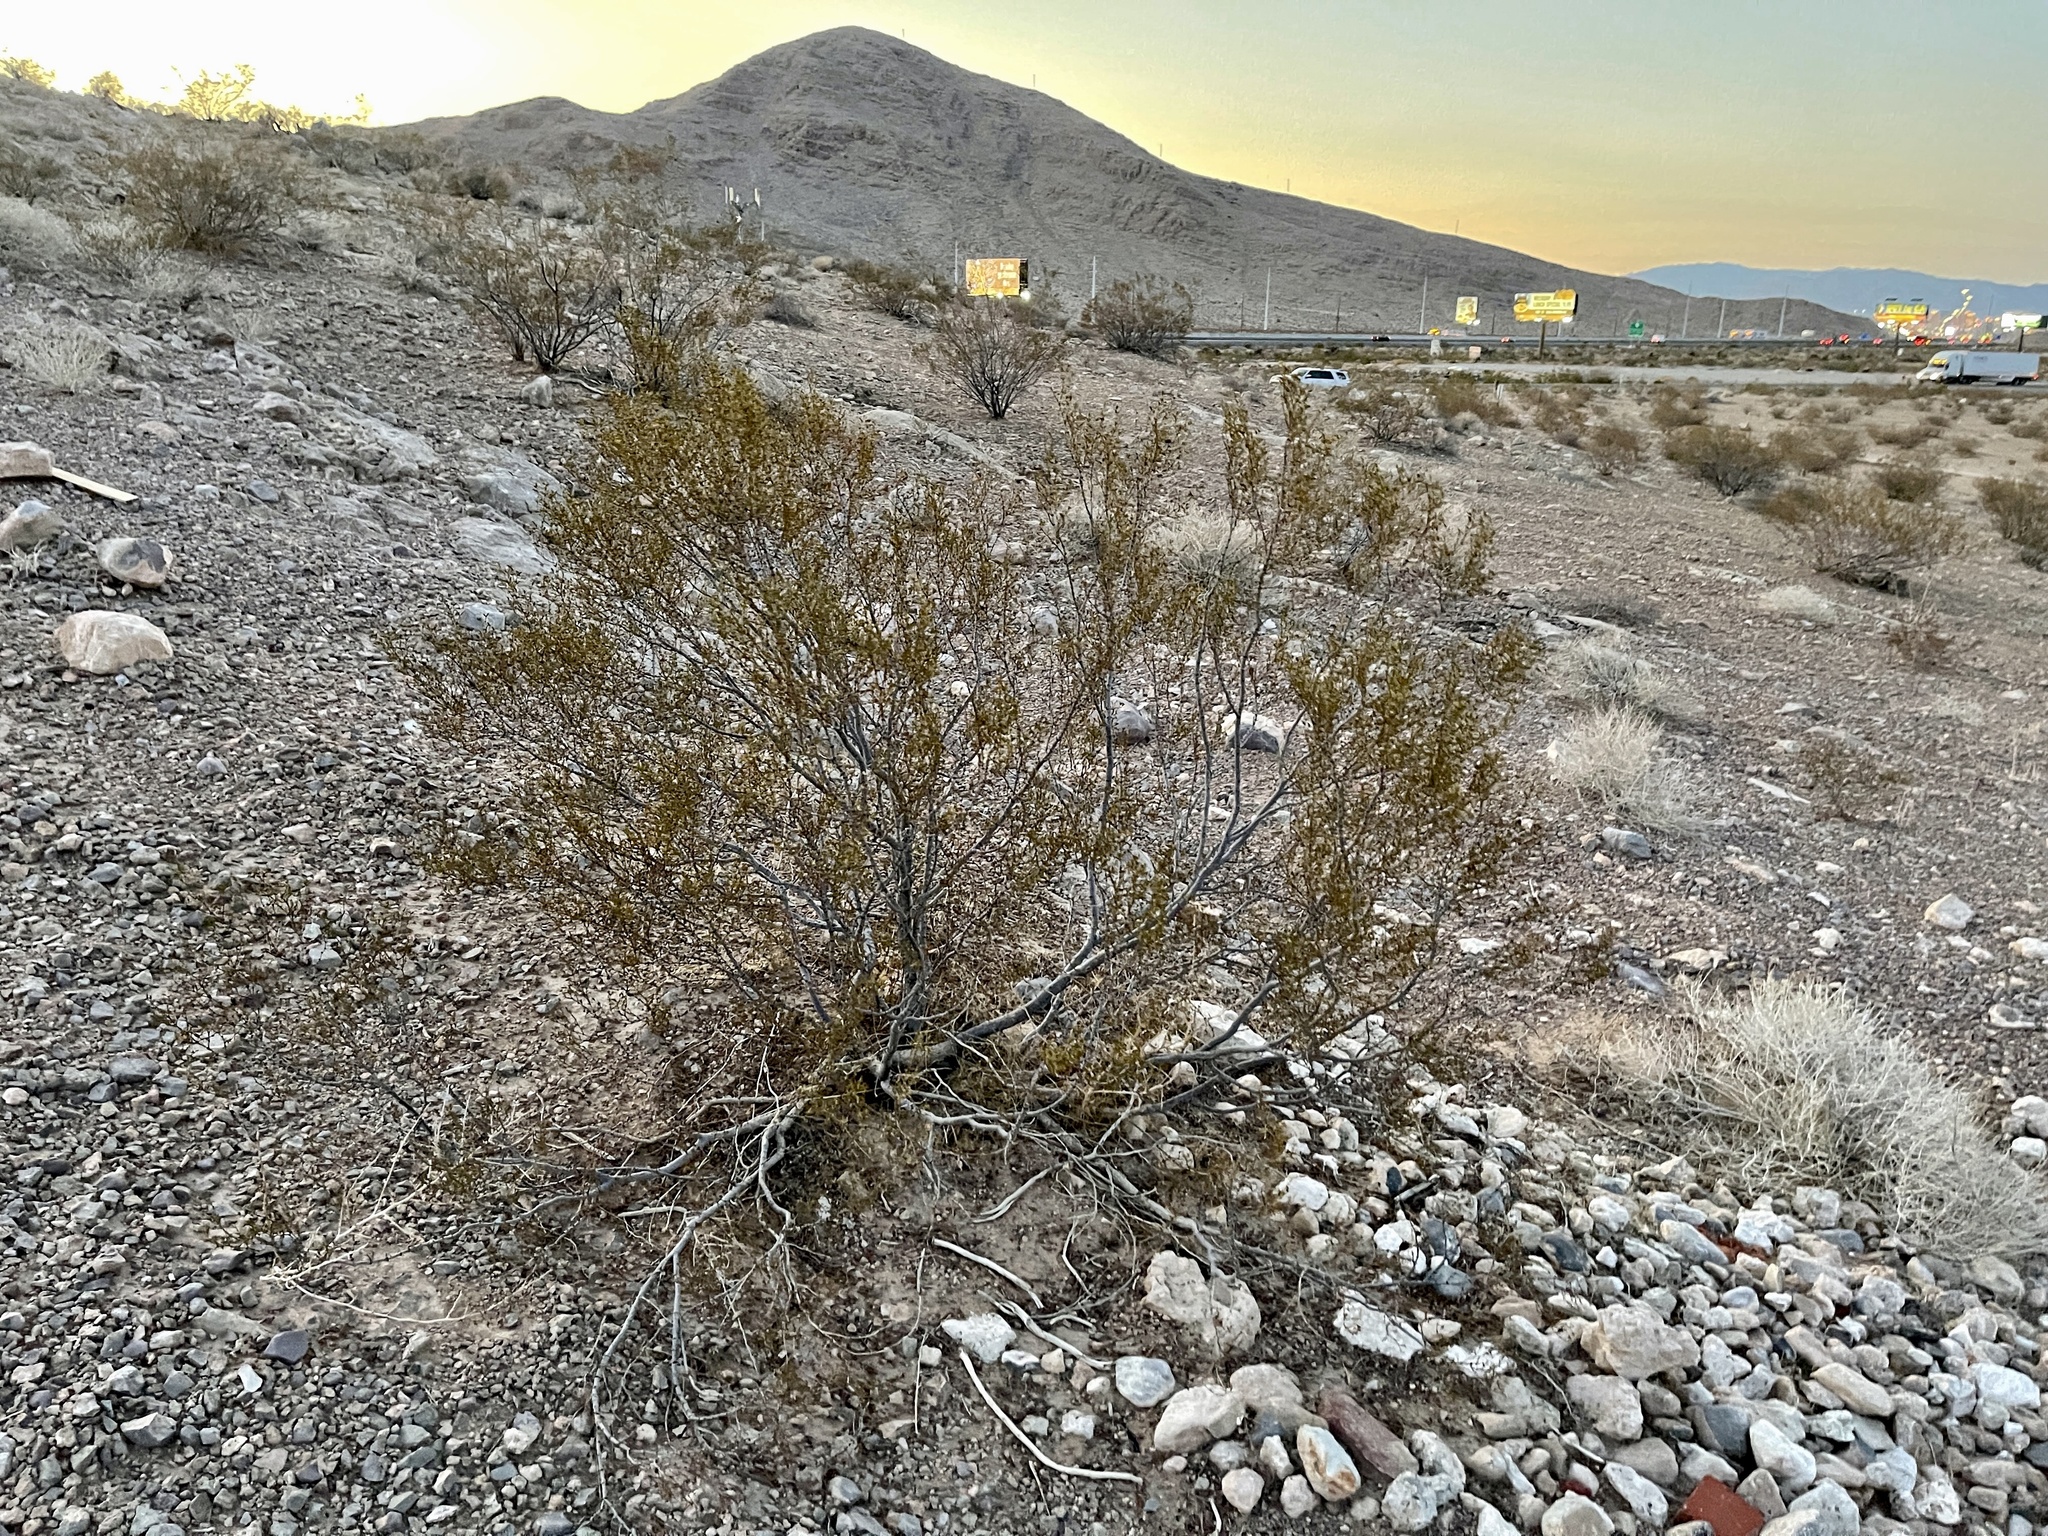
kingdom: Plantae
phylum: Tracheophyta
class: Magnoliopsida
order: Zygophyllales
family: Zygophyllaceae
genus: Larrea
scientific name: Larrea tridentata
